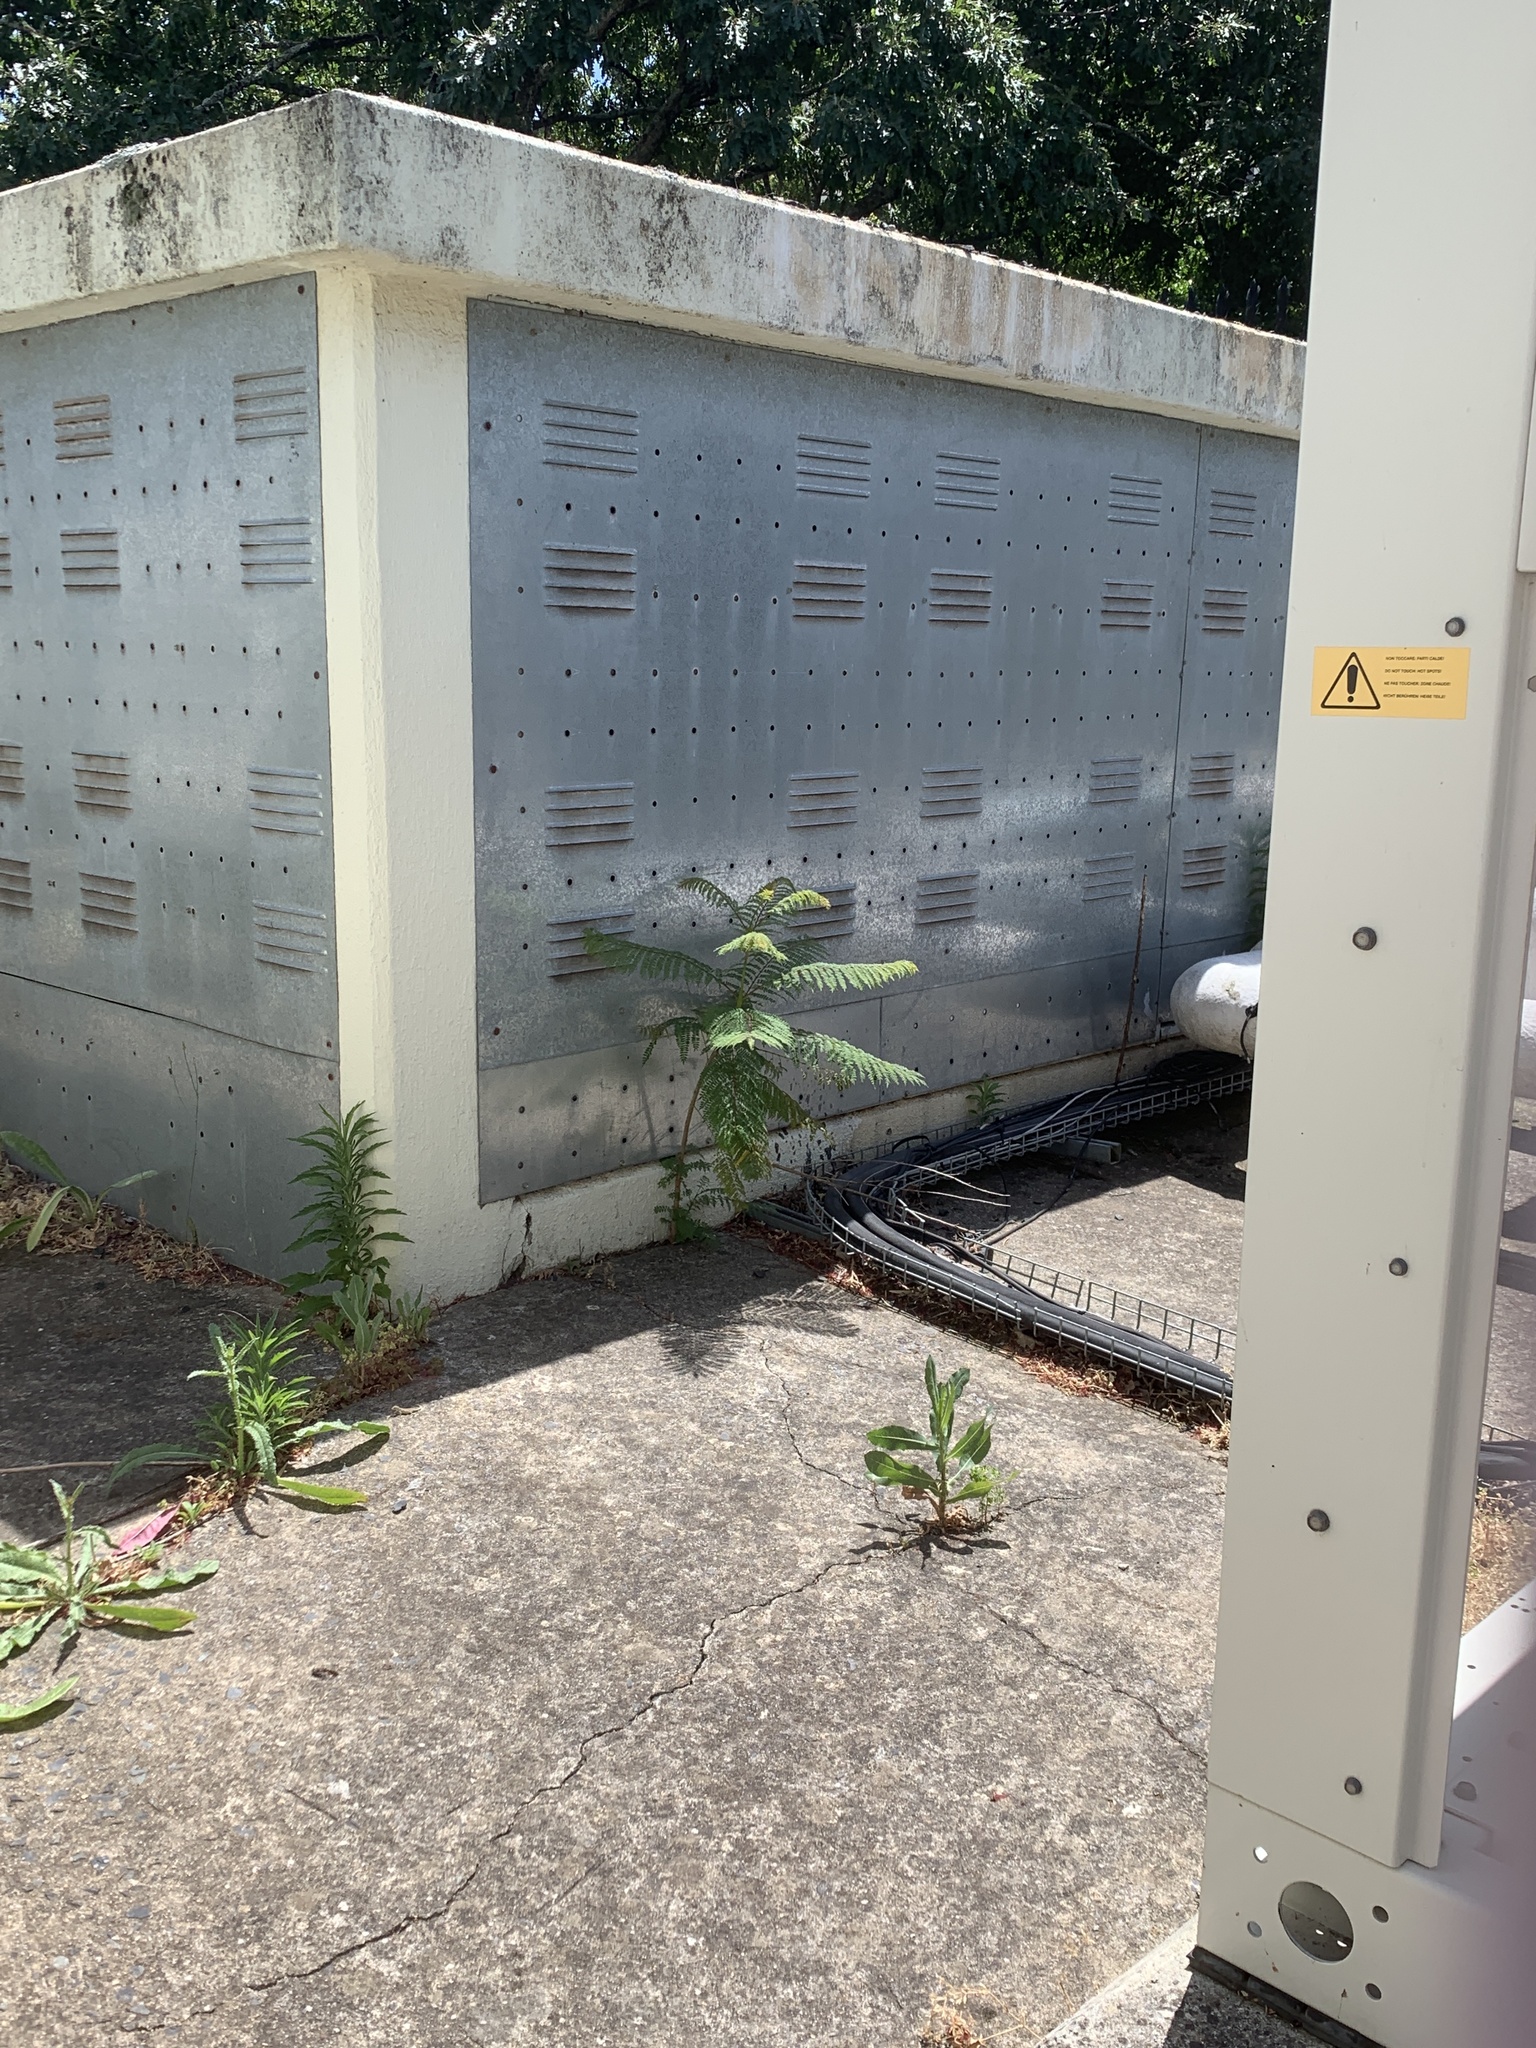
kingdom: Plantae
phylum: Tracheophyta
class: Magnoliopsida
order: Lamiales
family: Bignoniaceae
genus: Jacaranda
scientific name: Jacaranda mimosifolia
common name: Black poui
